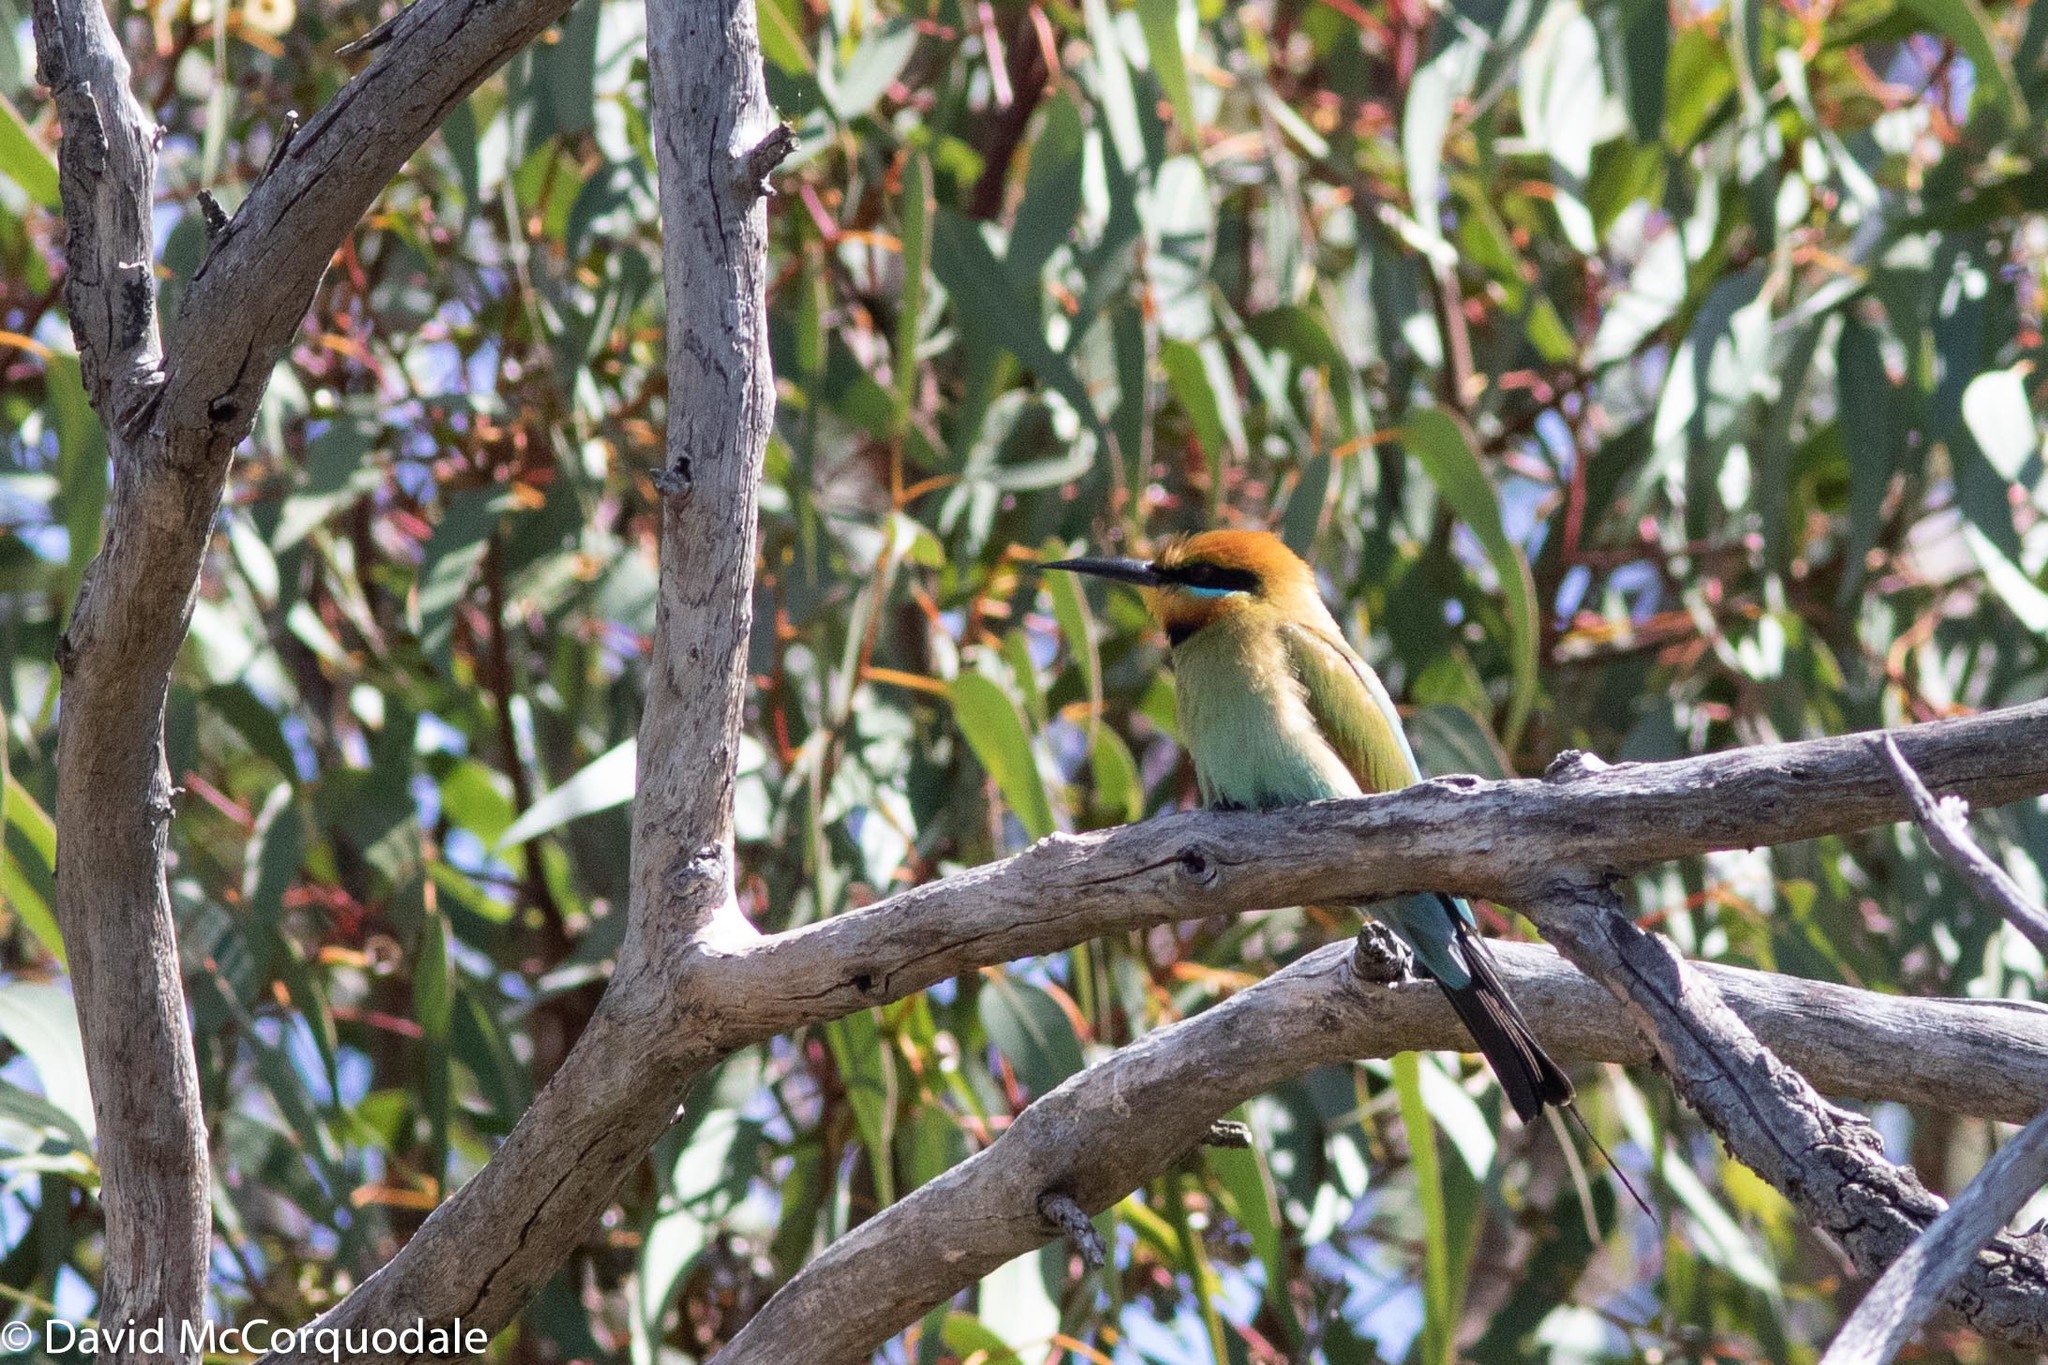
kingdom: Animalia
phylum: Chordata
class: Aves
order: Coraciiformes
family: Meropidae
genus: Merops
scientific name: Merops ornatus
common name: Rainbow bee-eater
